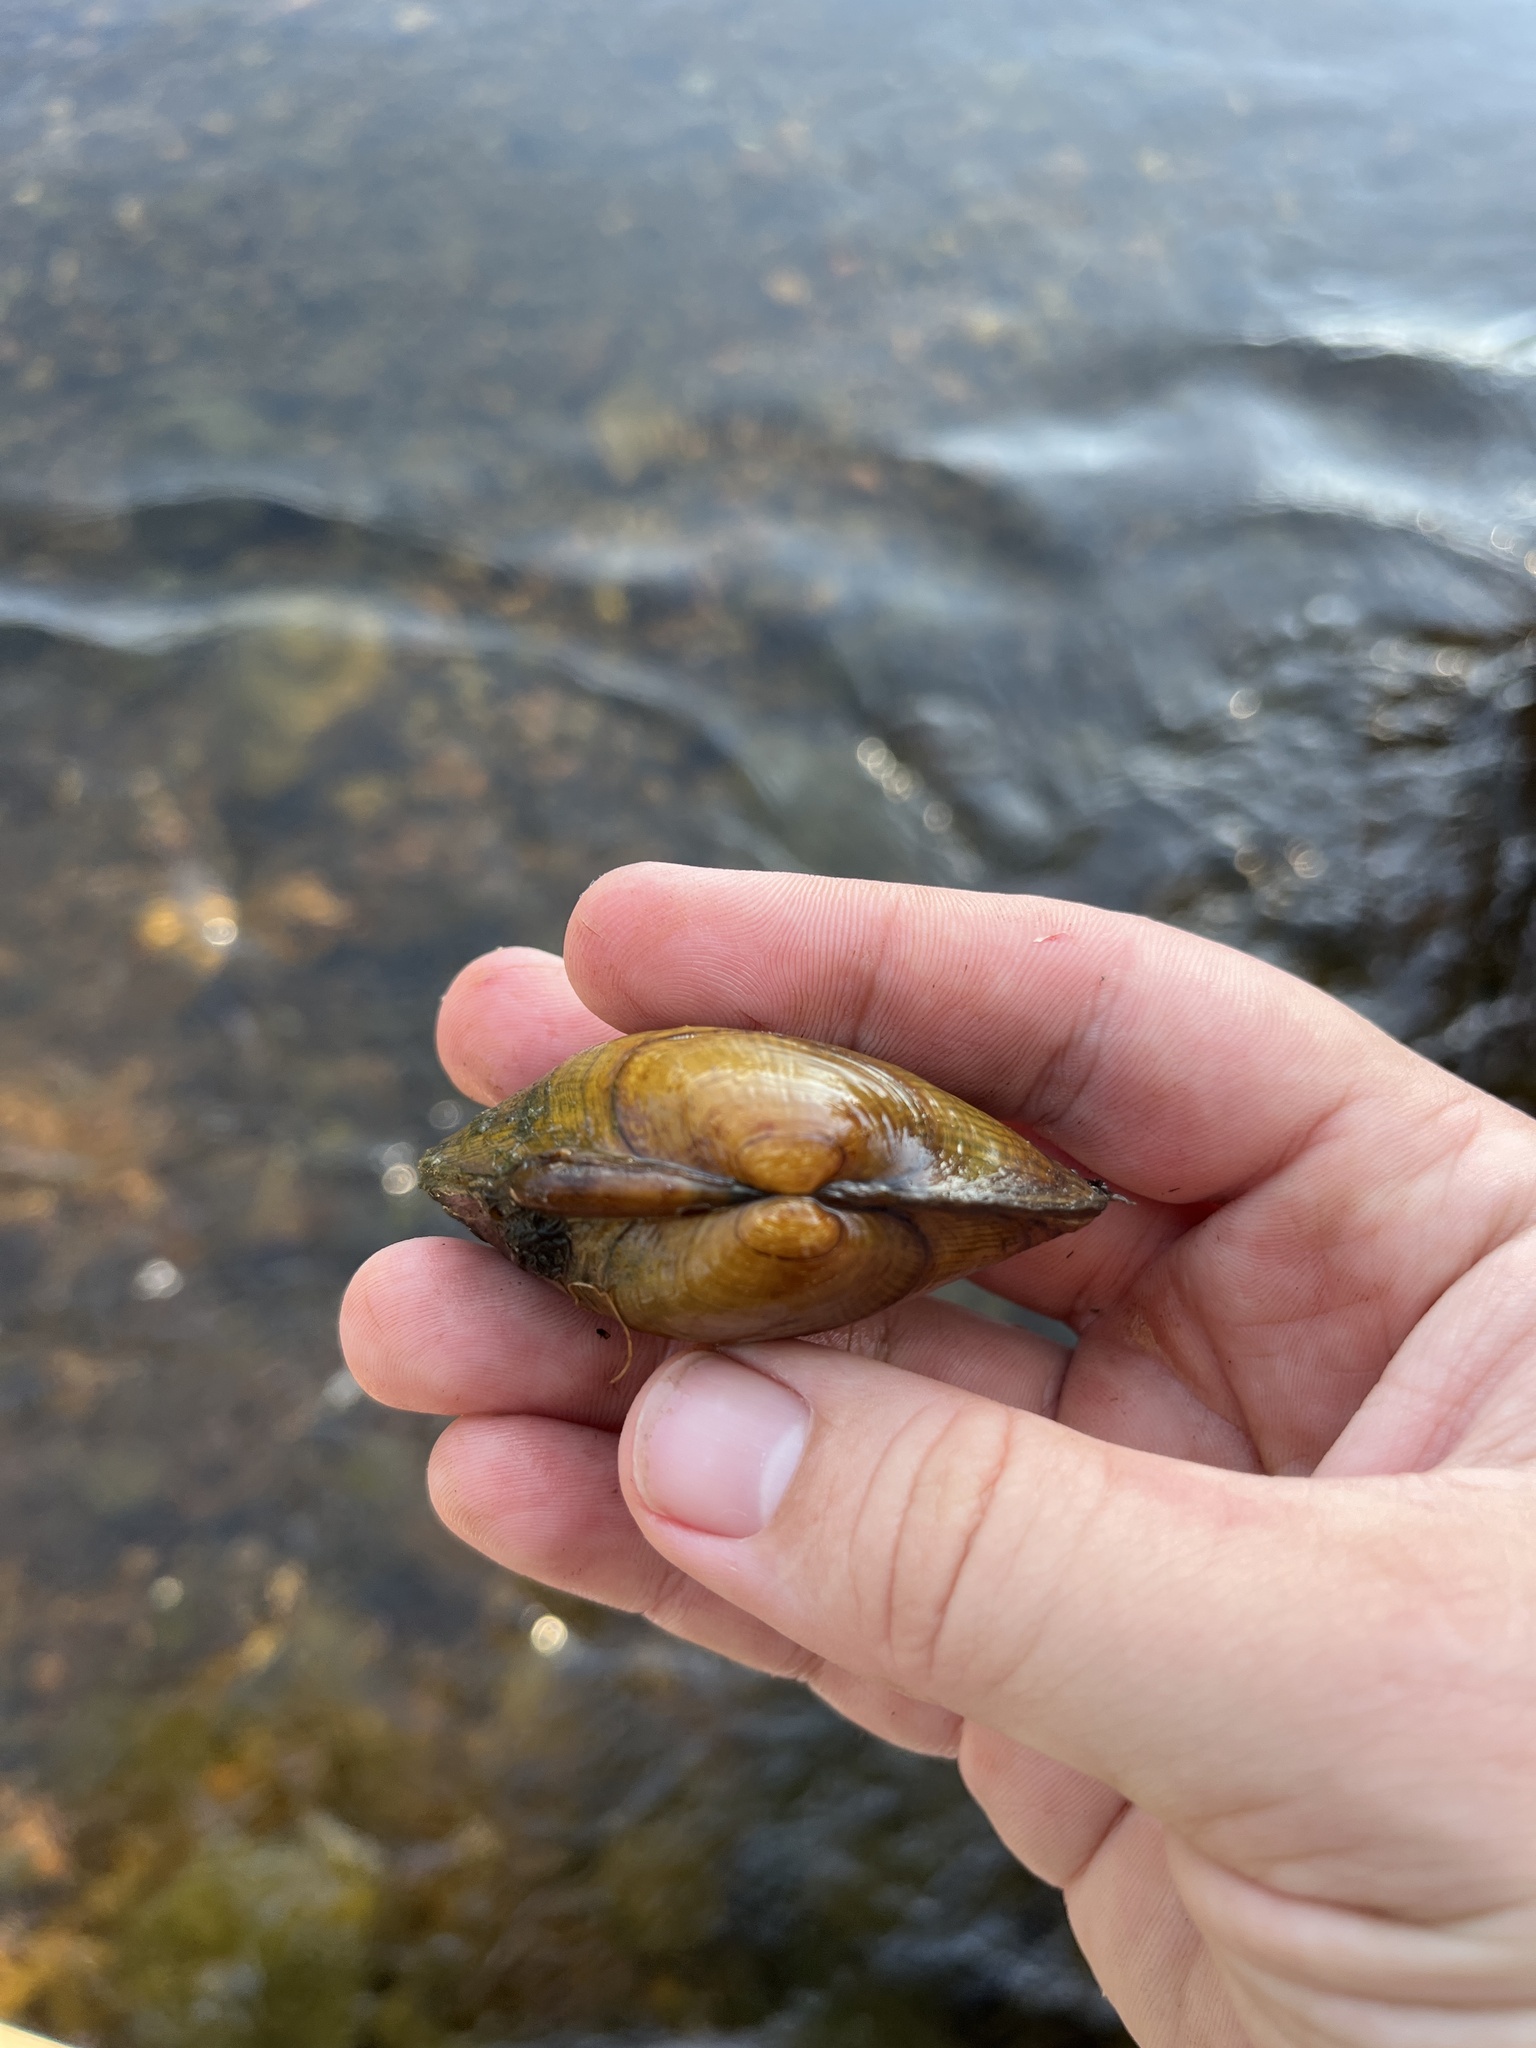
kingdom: Animalia
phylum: Mollusca
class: Bivalvia
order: Unionida
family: Unionidae
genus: Lampsilis
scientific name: Lampsilis fasciola
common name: Wavyrayed lampmussel
